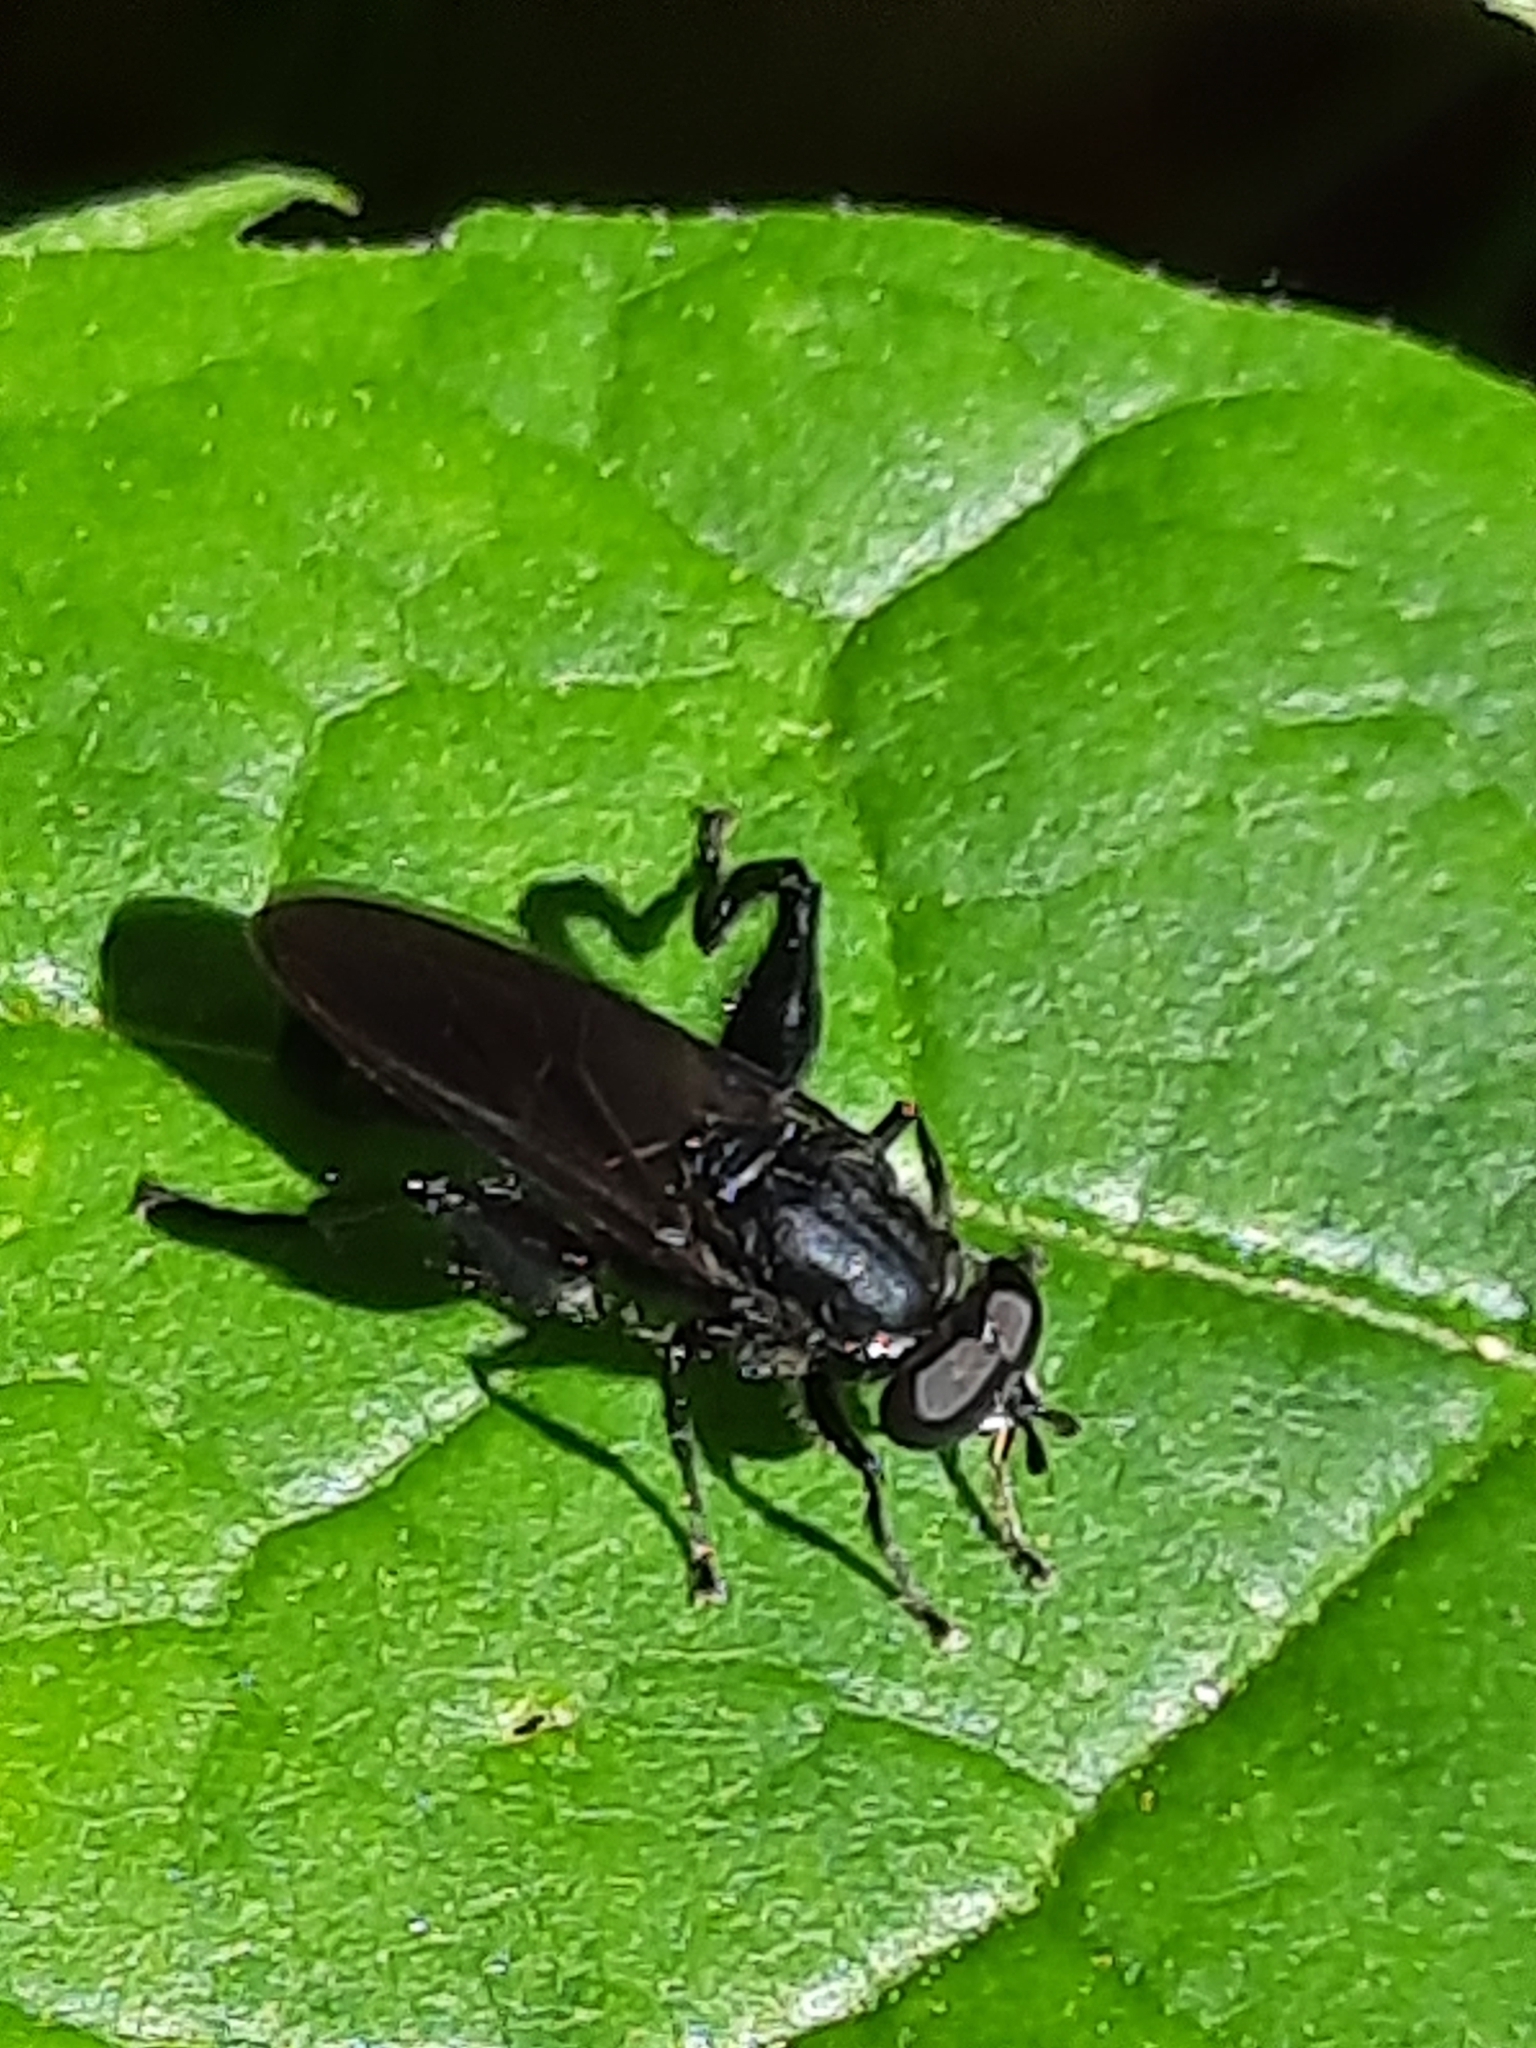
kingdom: Animalia
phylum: Arthropoda
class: Insecta
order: Diptera
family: Syrphidae
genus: Chalcosyrphus
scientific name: Chalcosyrphus chalybeus
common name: Violet leafwalker
